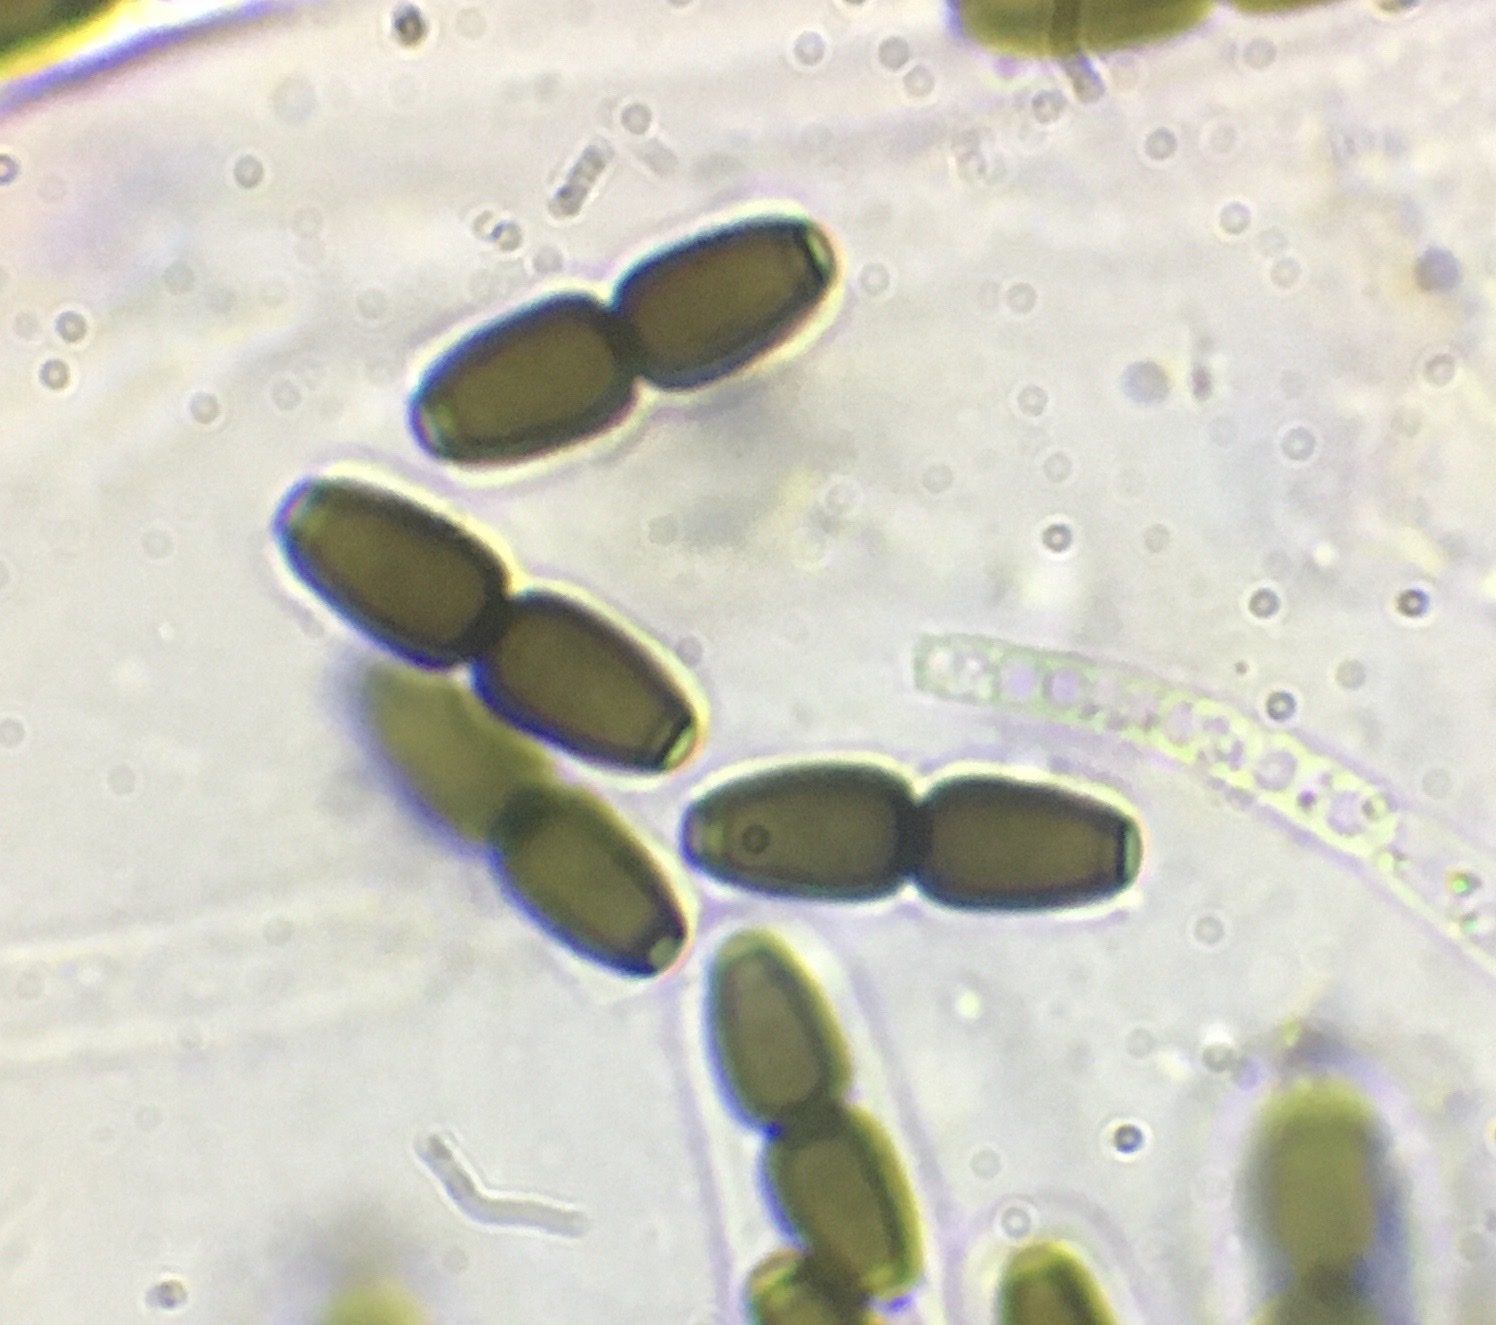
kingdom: Fungi
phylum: Ascomycota
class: Dothideomycetes
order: Phaeotrichales
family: Phaeotrichaceae
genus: Trichodelitschia
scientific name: Trichodelitschia lundqvistii
